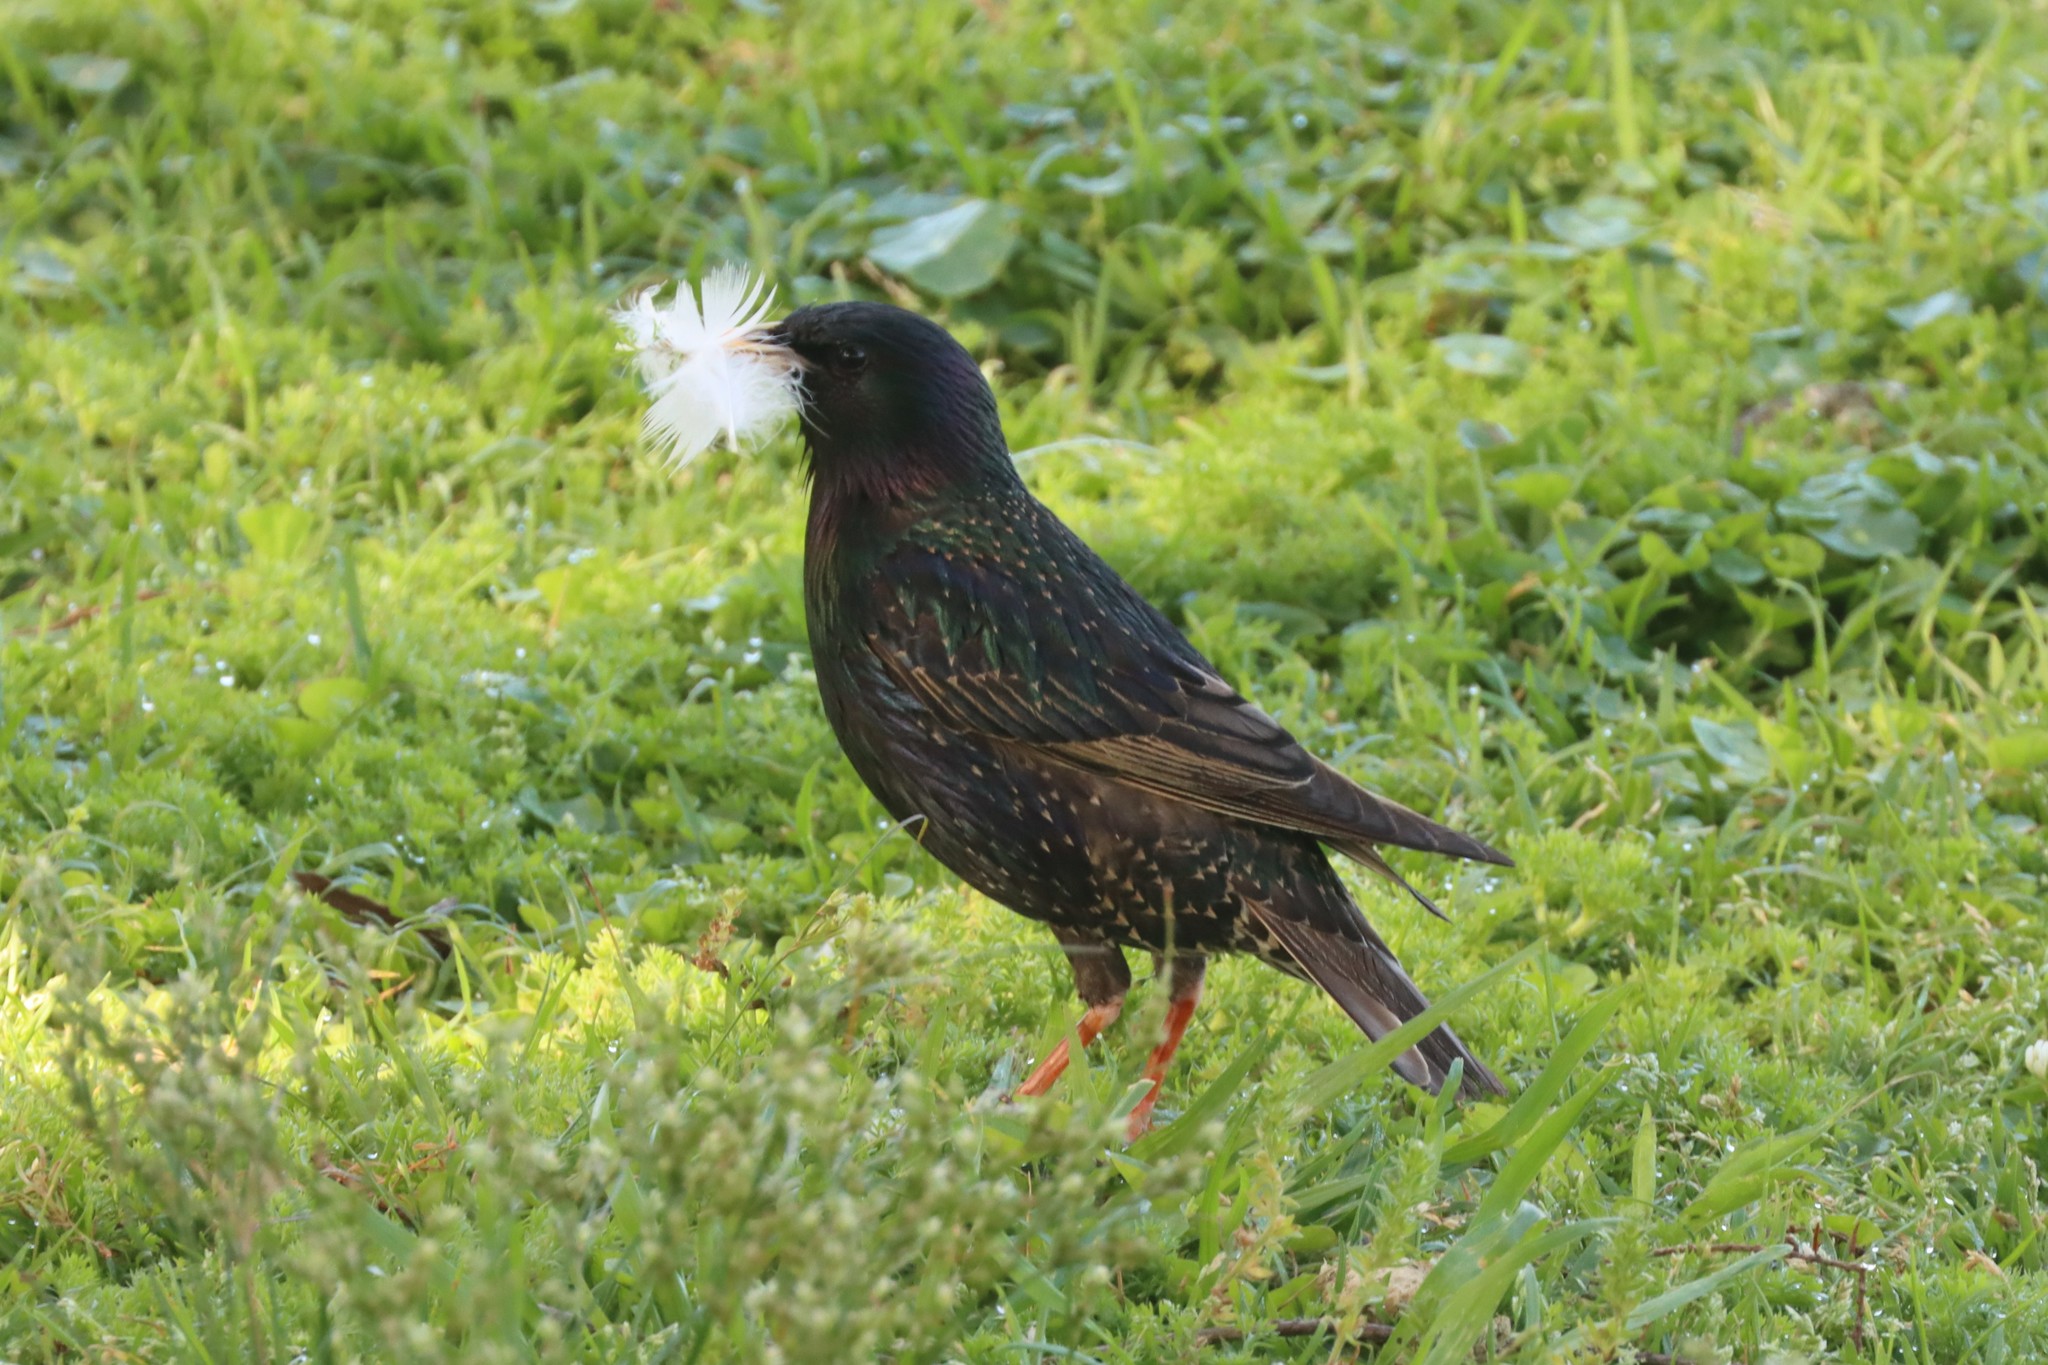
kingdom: Animalia
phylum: Chordata
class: Aves
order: Passeriformes
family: Sturnidae
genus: Sturnus
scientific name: Sturnus vulgaris
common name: Common starling
